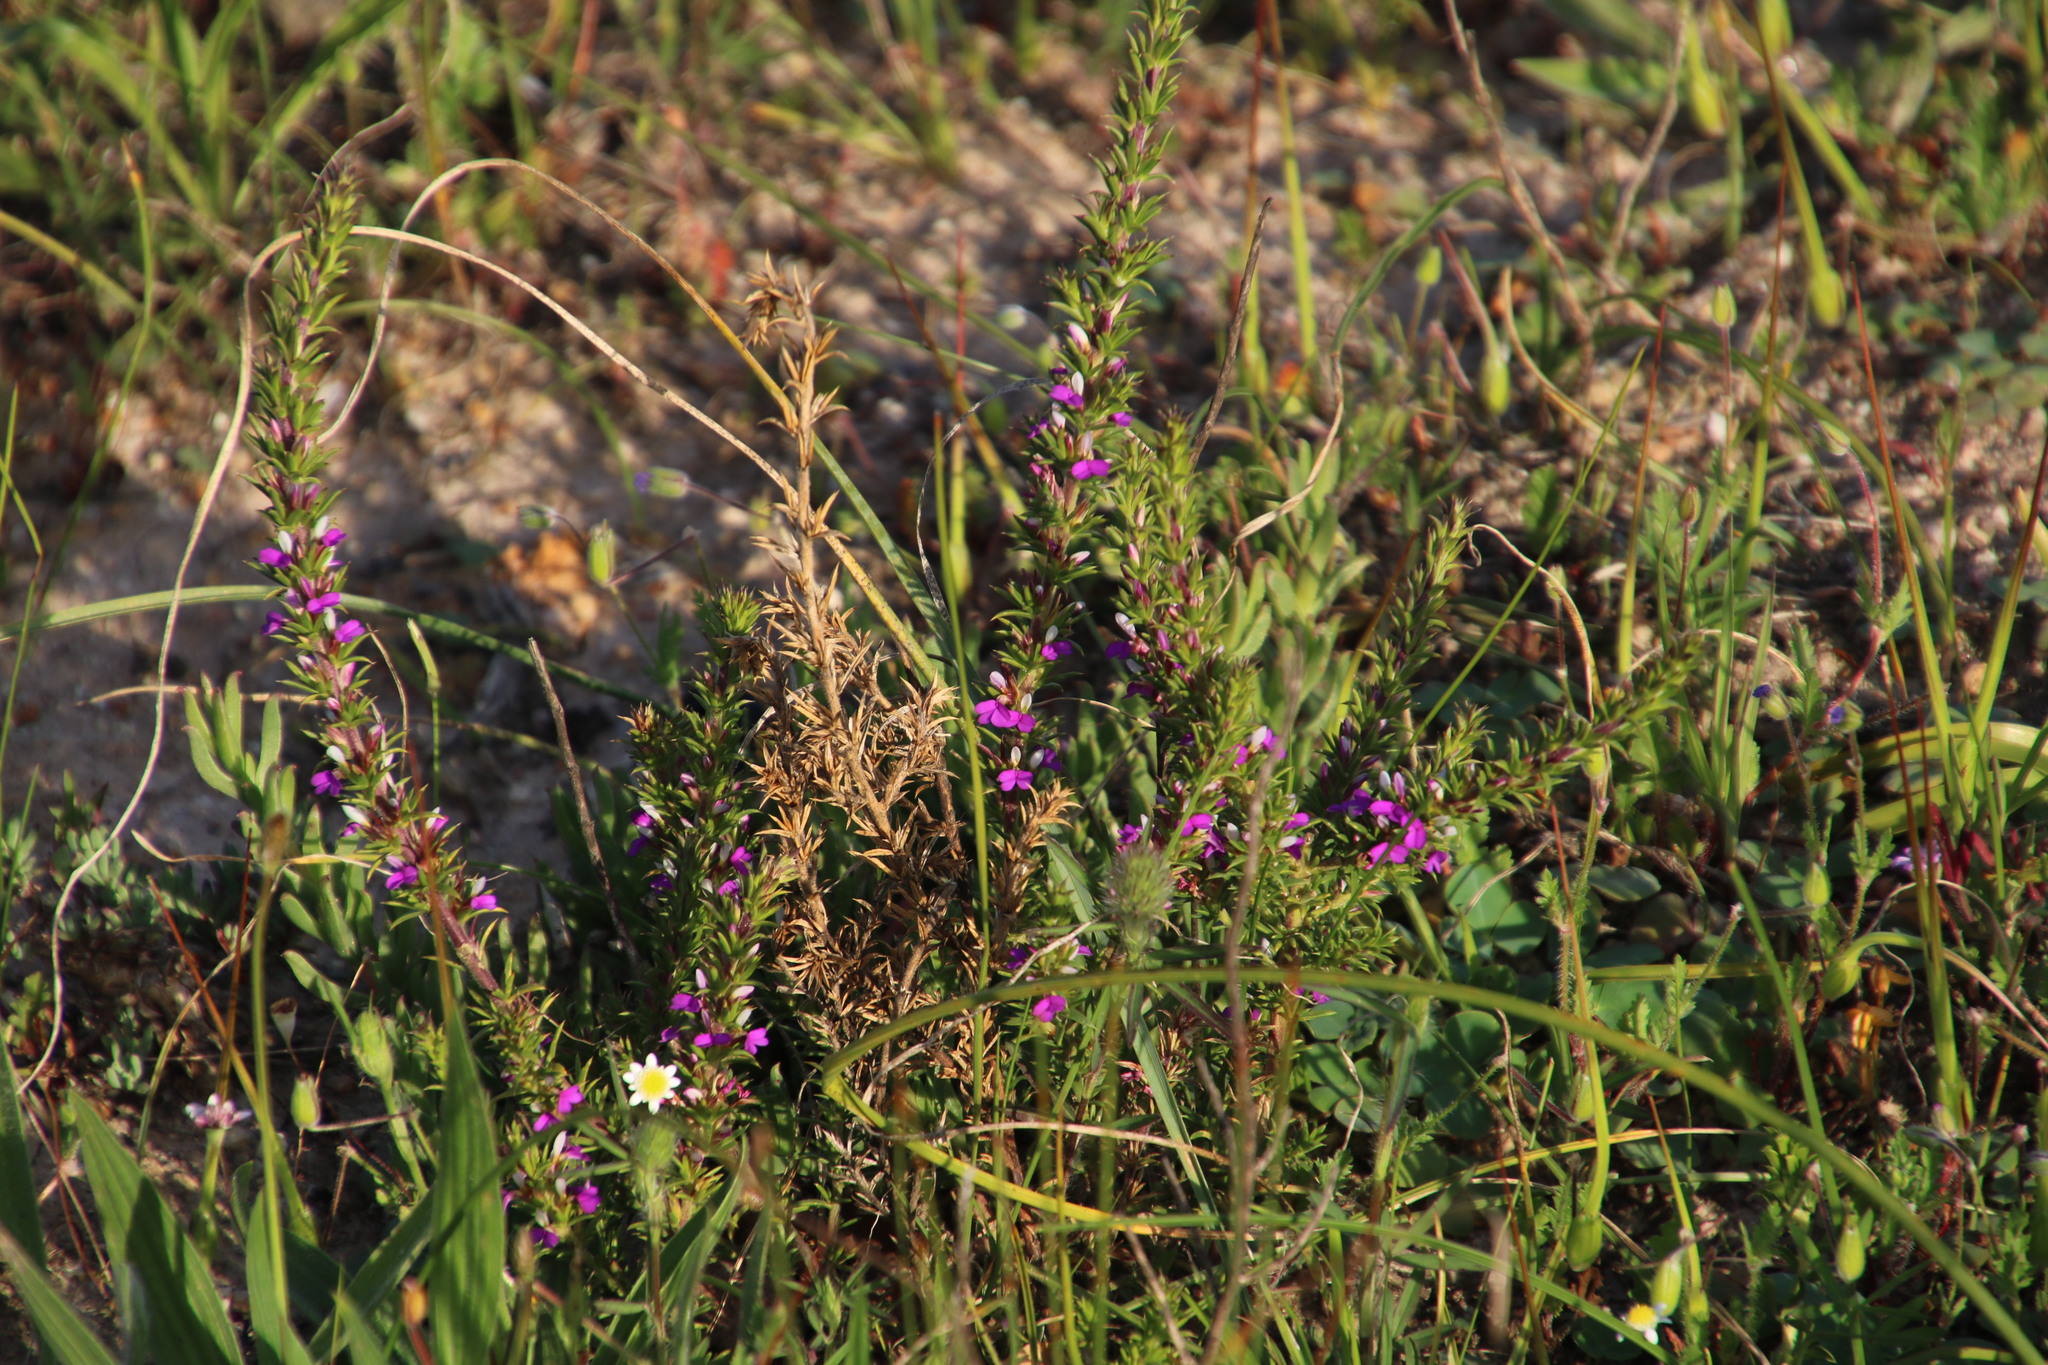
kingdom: Plantae
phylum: Tracheophyta
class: Magnoliopsida
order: Fabales
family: Polygalaceae
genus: Muraltia
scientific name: Muraltia heisteria
